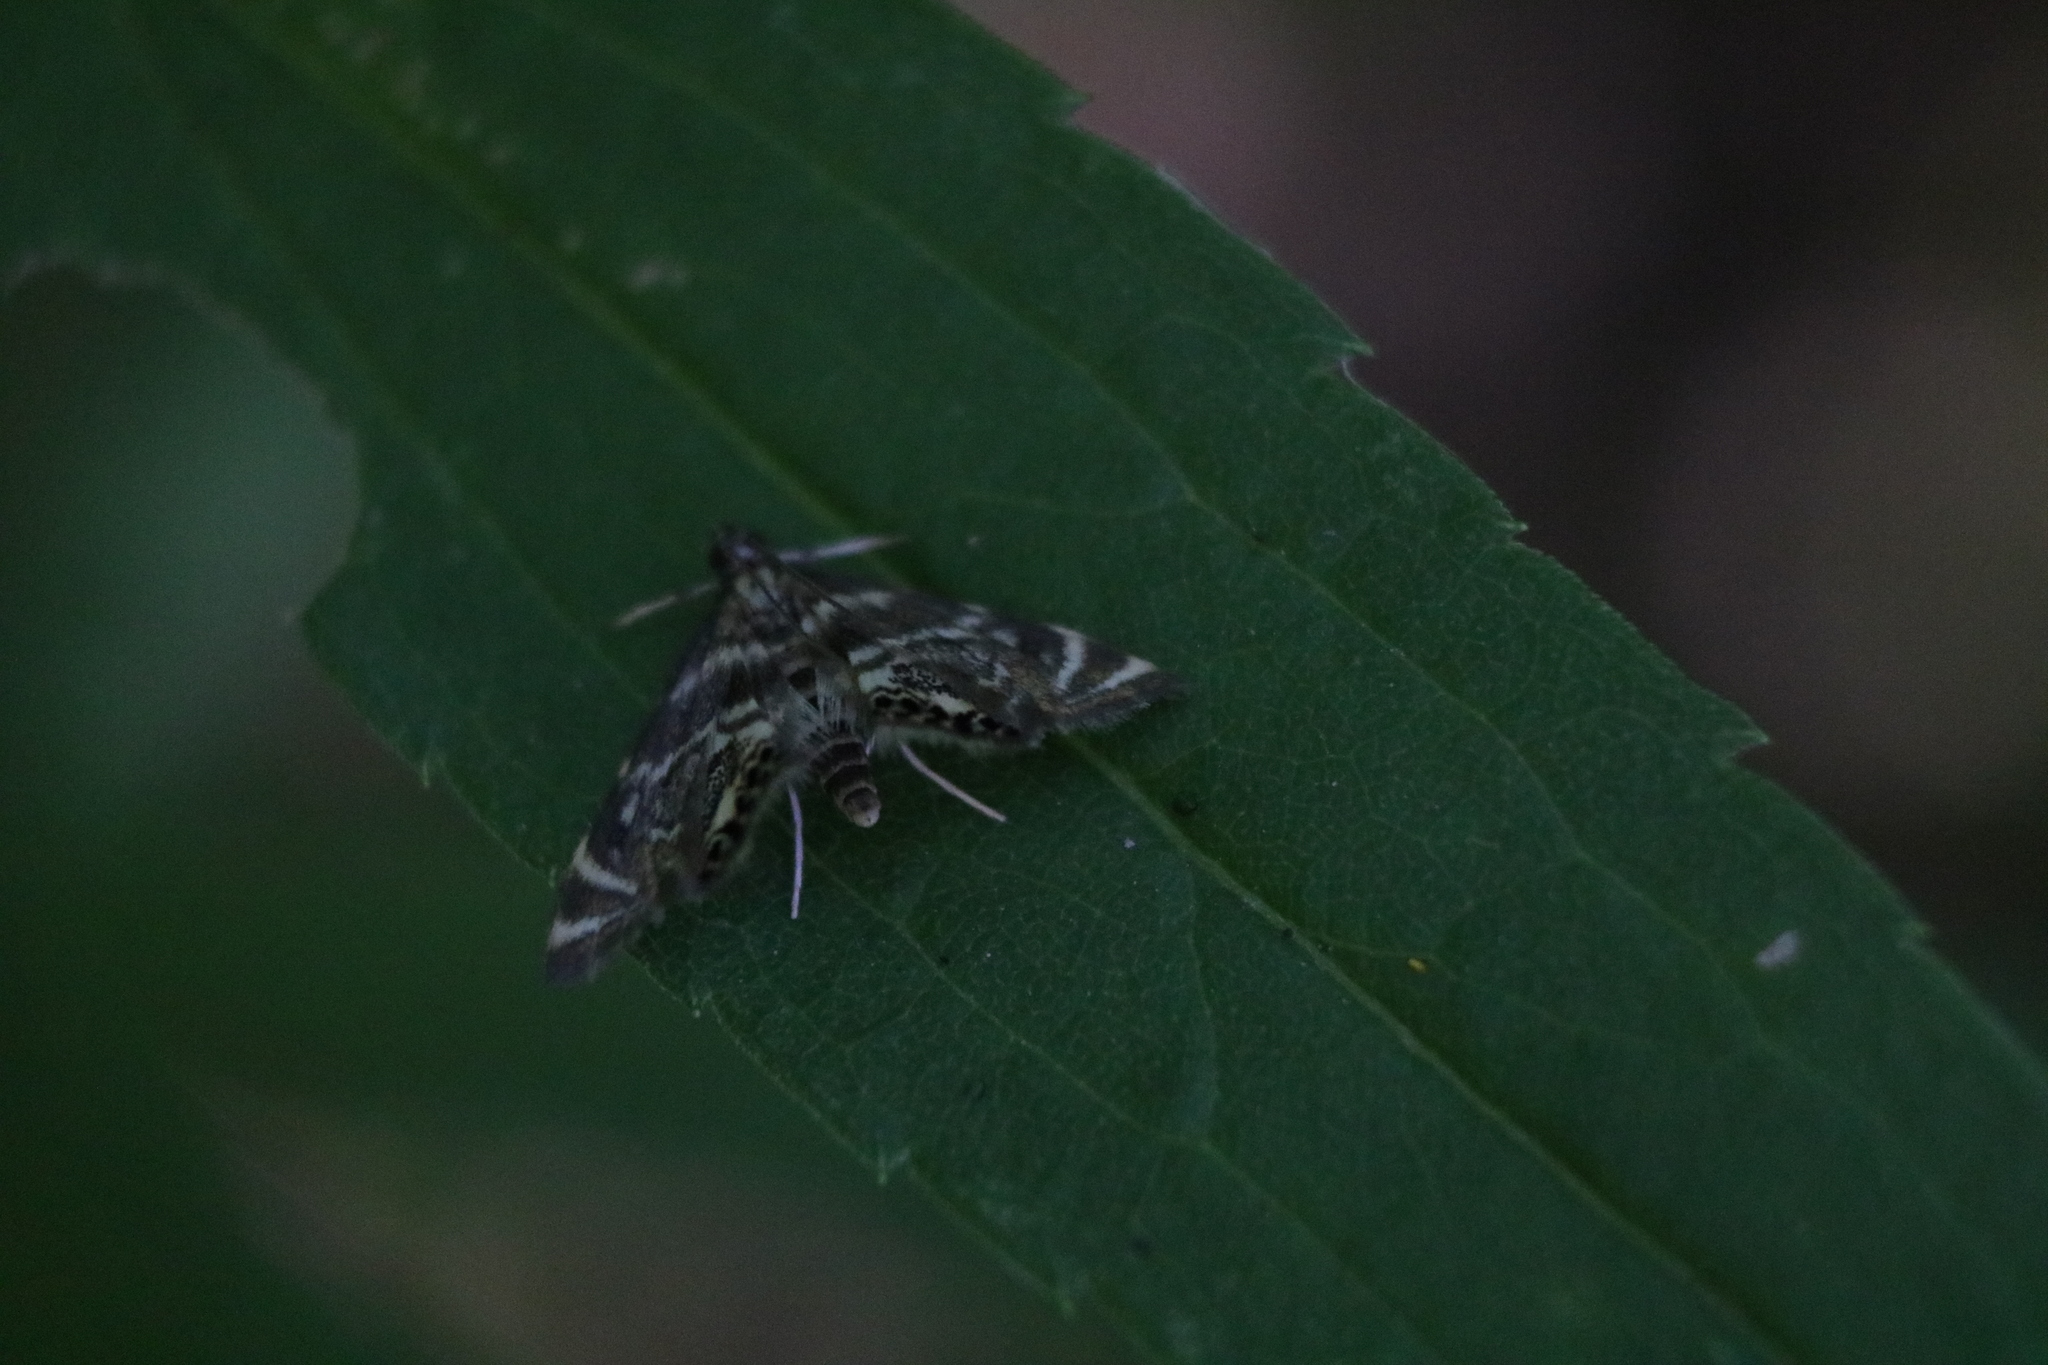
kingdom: Animalia
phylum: Arthropoda
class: Insecta
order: Lepidoptera
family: Crambidae
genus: Petrophila
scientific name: Petrophila canadensis
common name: Canadian petrophila
